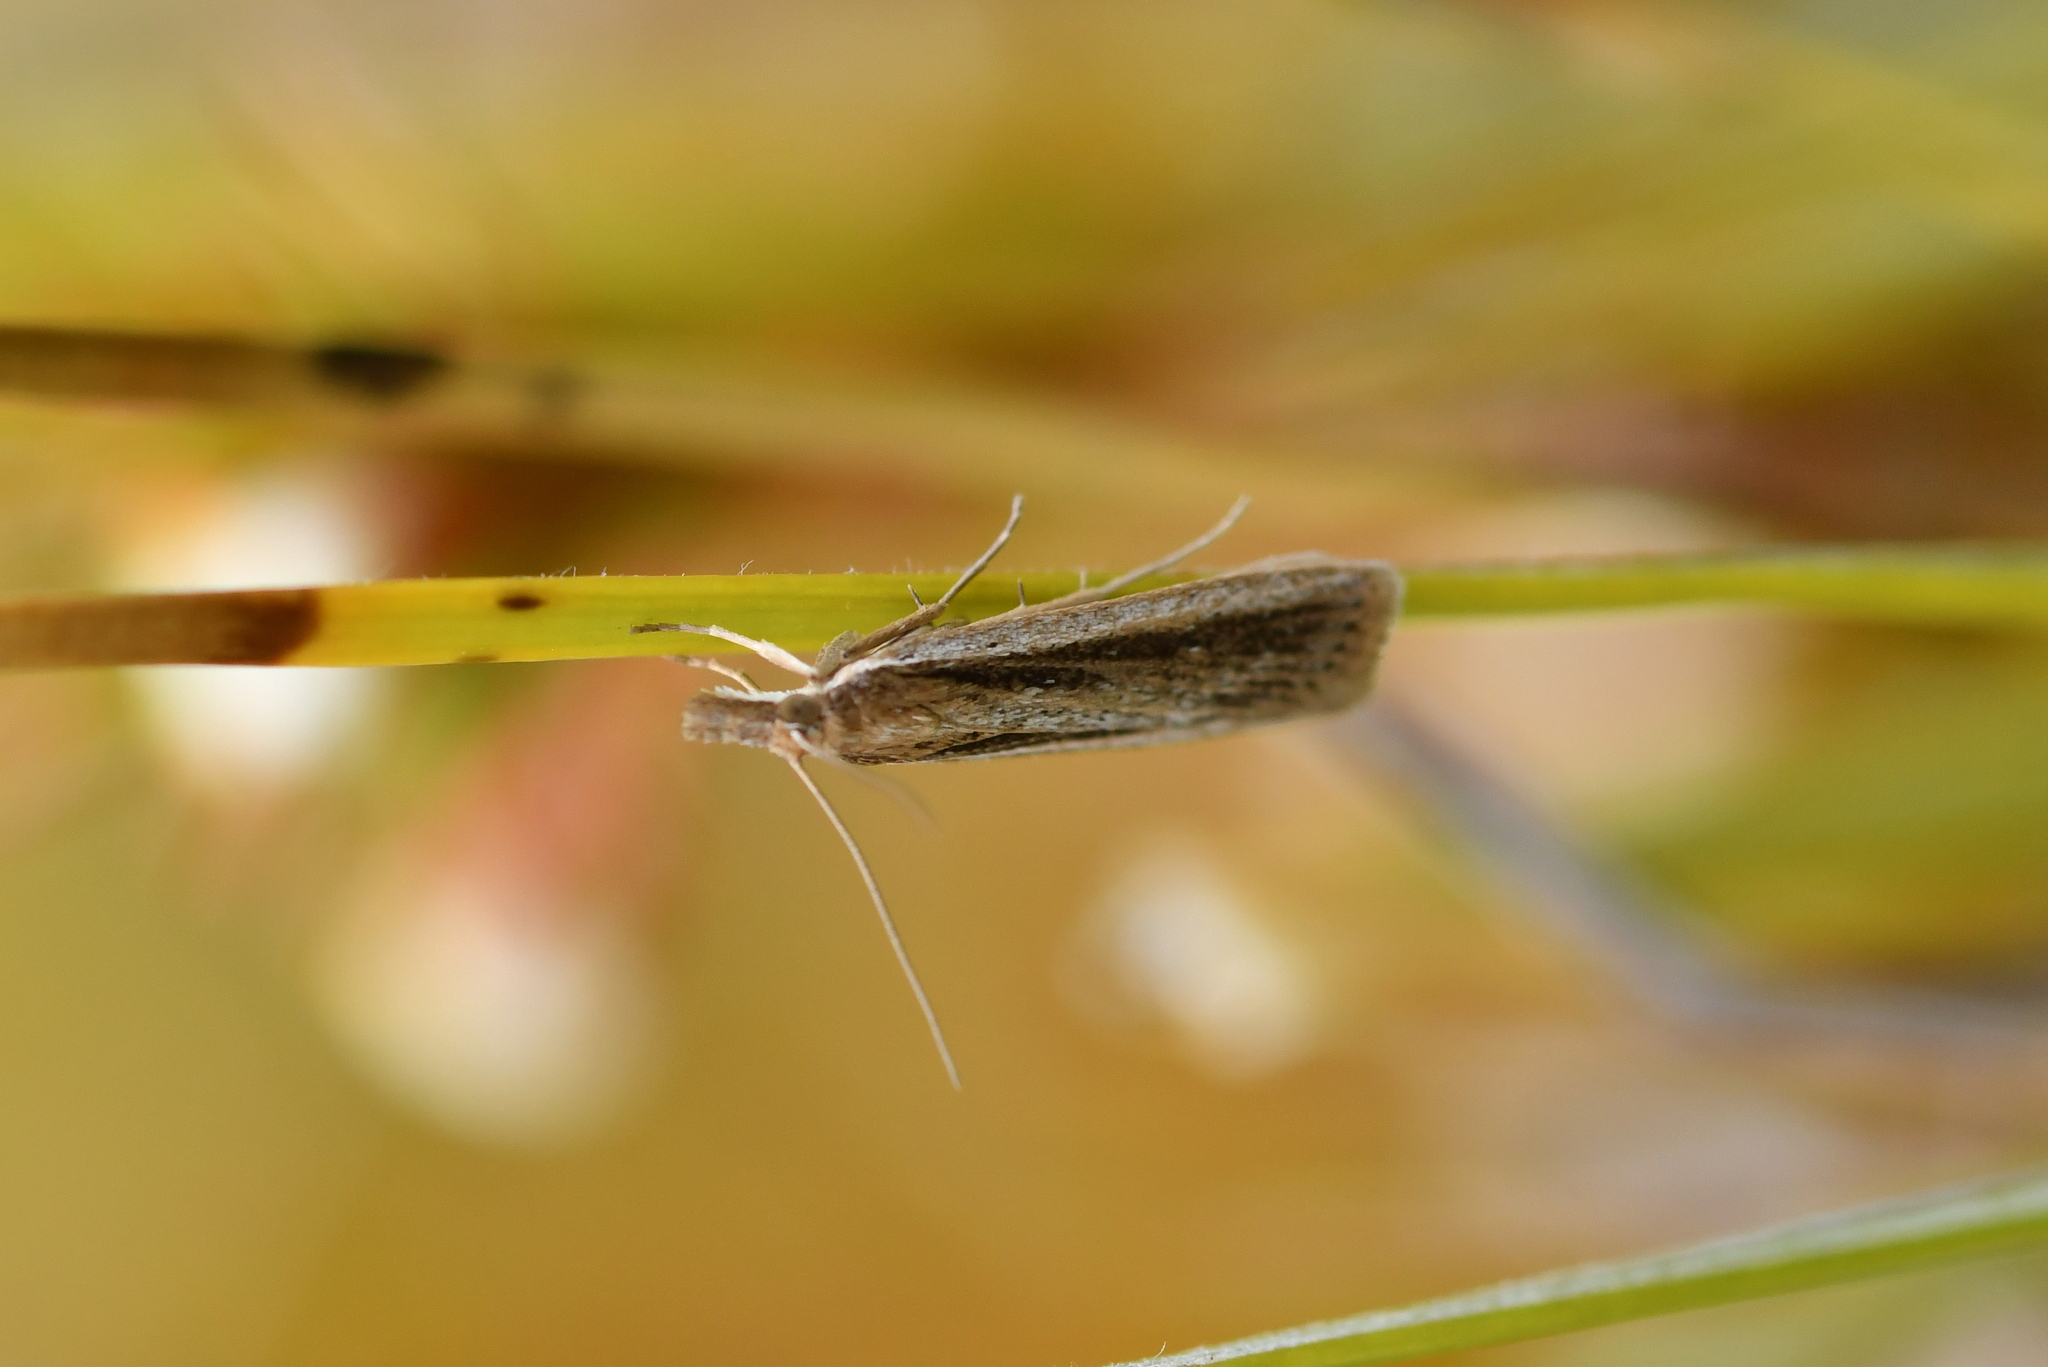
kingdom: Animalia
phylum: Arthropoda
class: Insecta
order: Lepidoptera
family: Crambidae
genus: Eudonia
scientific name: Eudonia sabulosella
